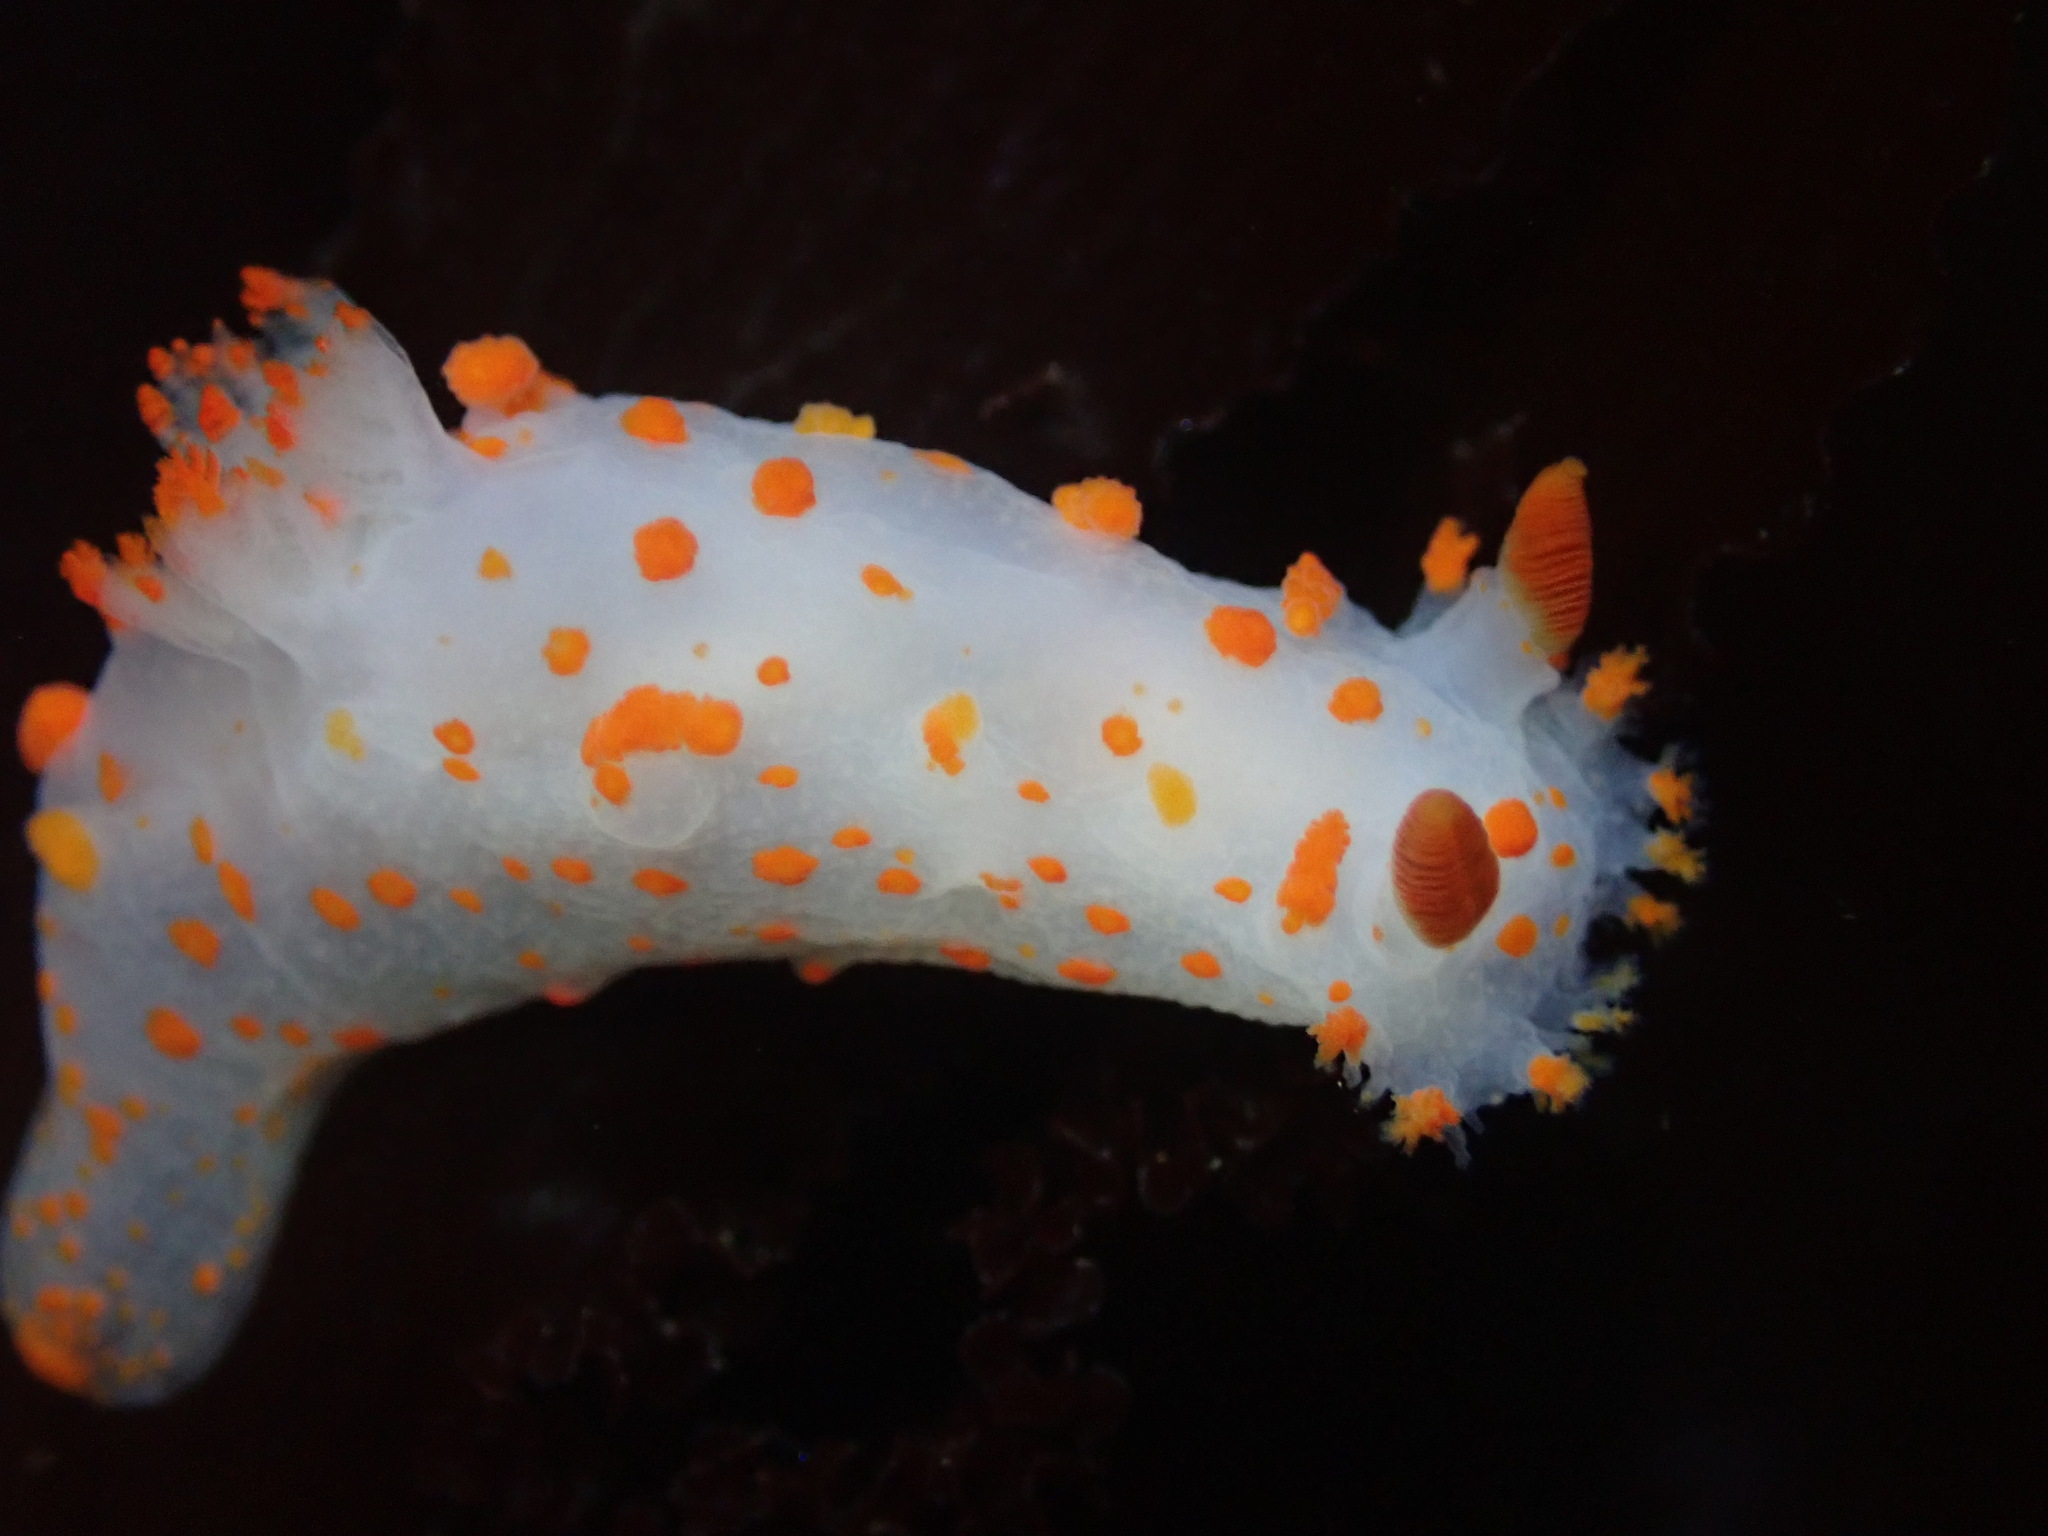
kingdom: Animalia
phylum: Mollusca
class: Gastropoda
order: Nudibranchia
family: Polyceridae
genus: Triopha
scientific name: Triopha catalinae
